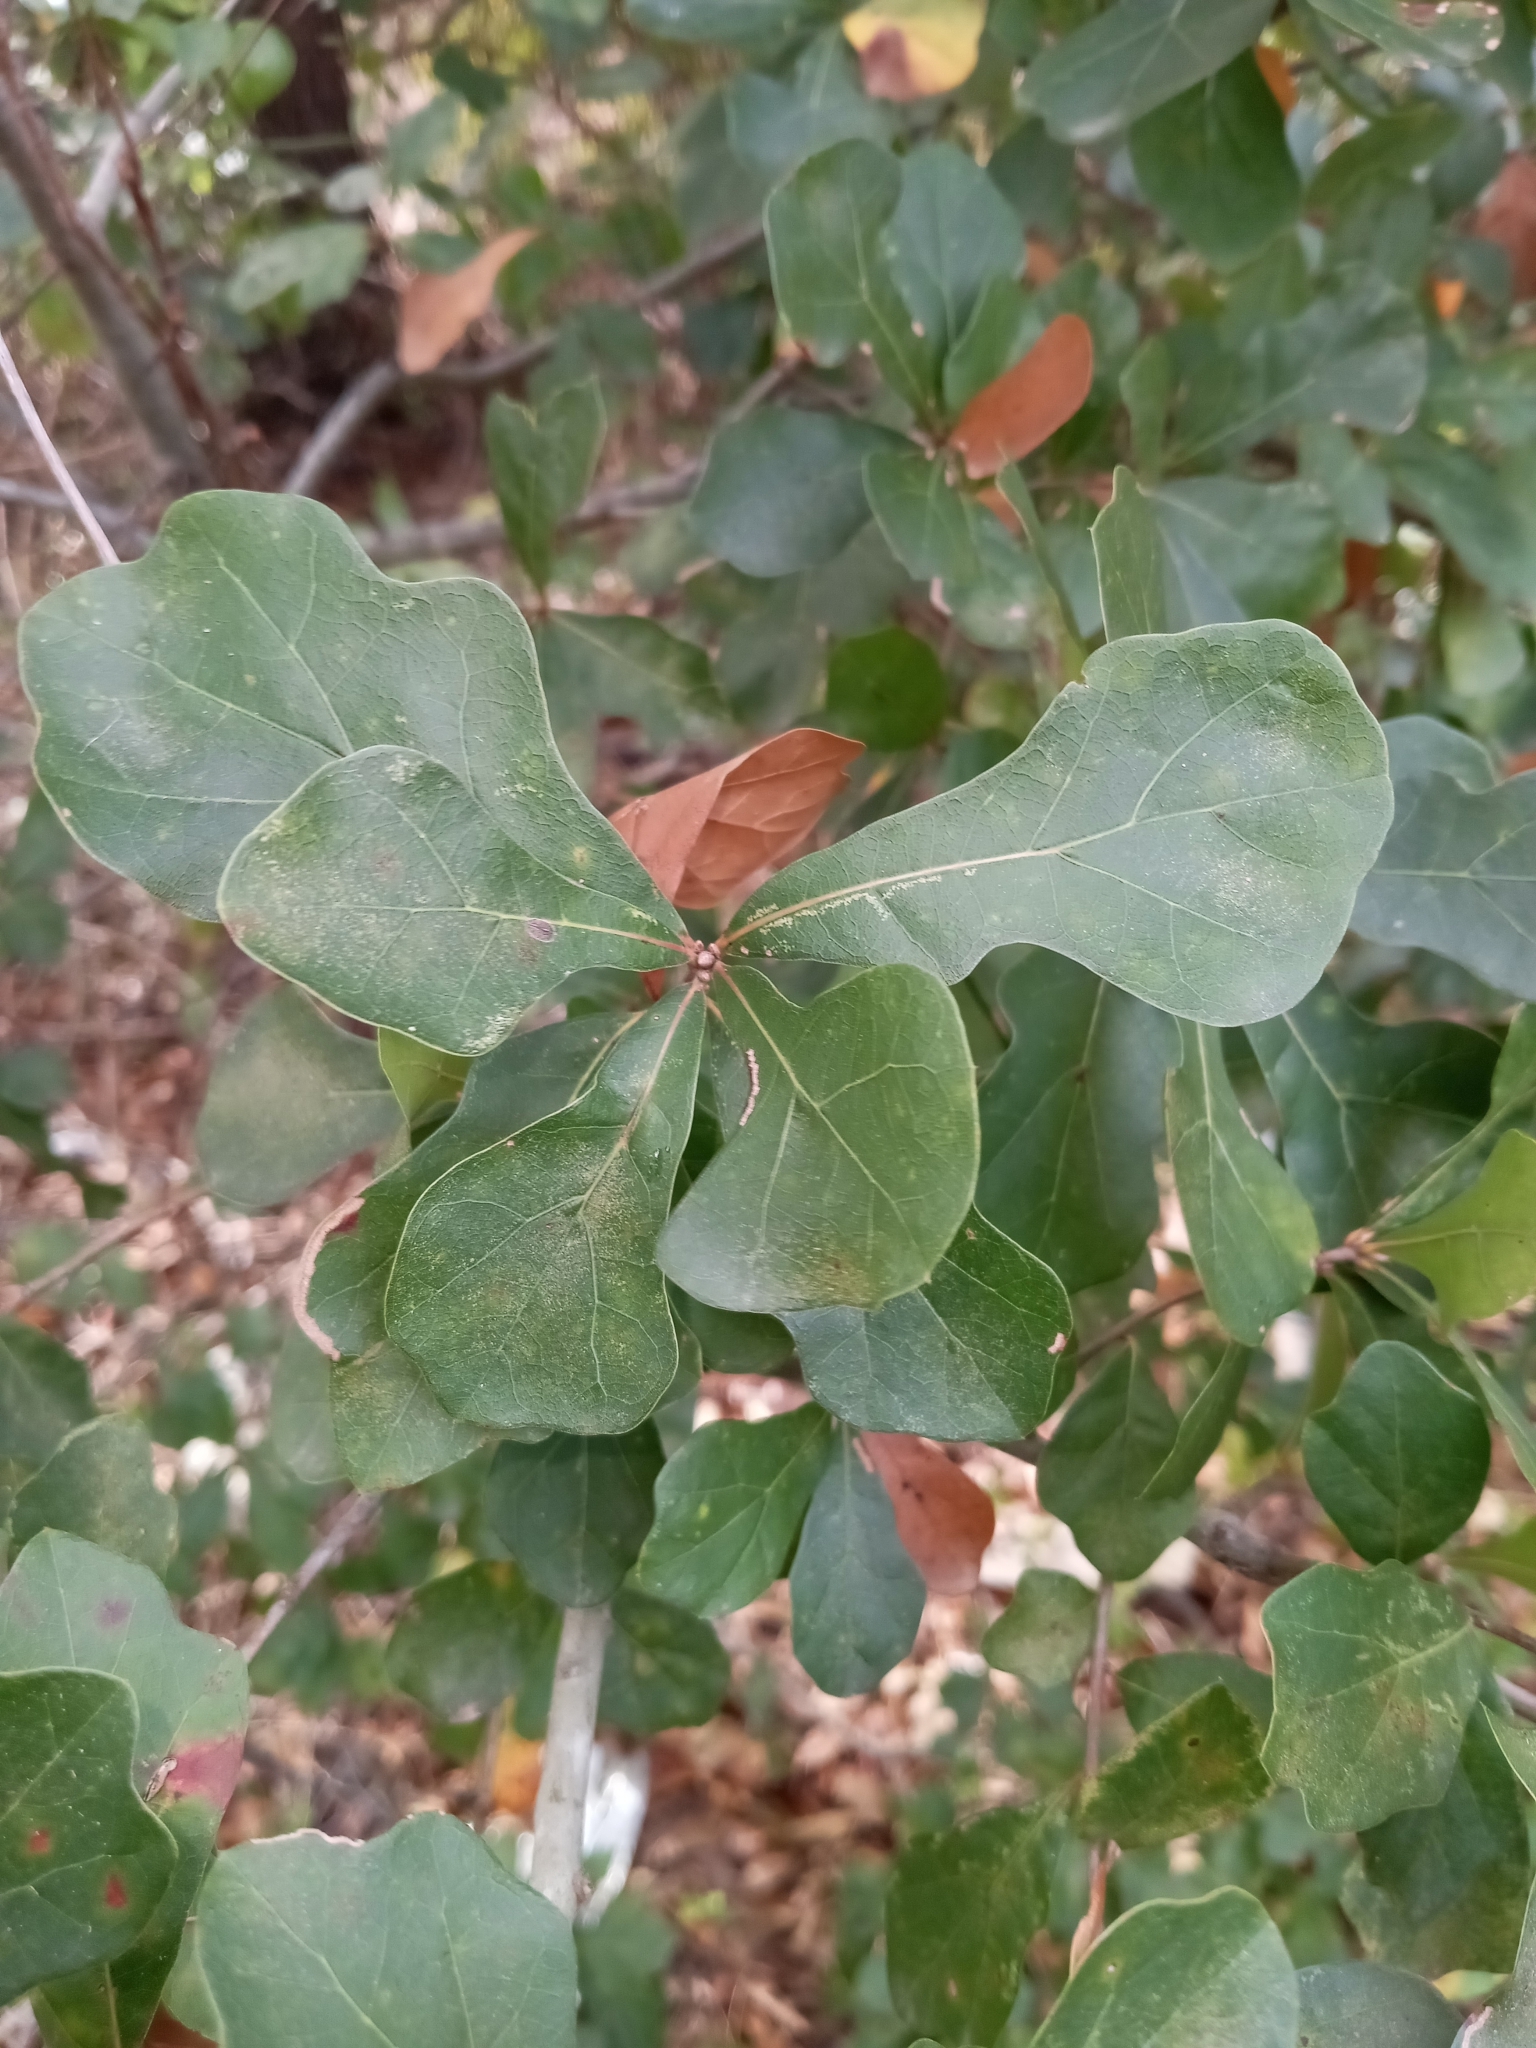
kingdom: Plantae
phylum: Tracheophyta
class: Magnoliopsida
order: Fagales
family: Fagaceae
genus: Quercus
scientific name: Quercus nigra
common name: Water oak
